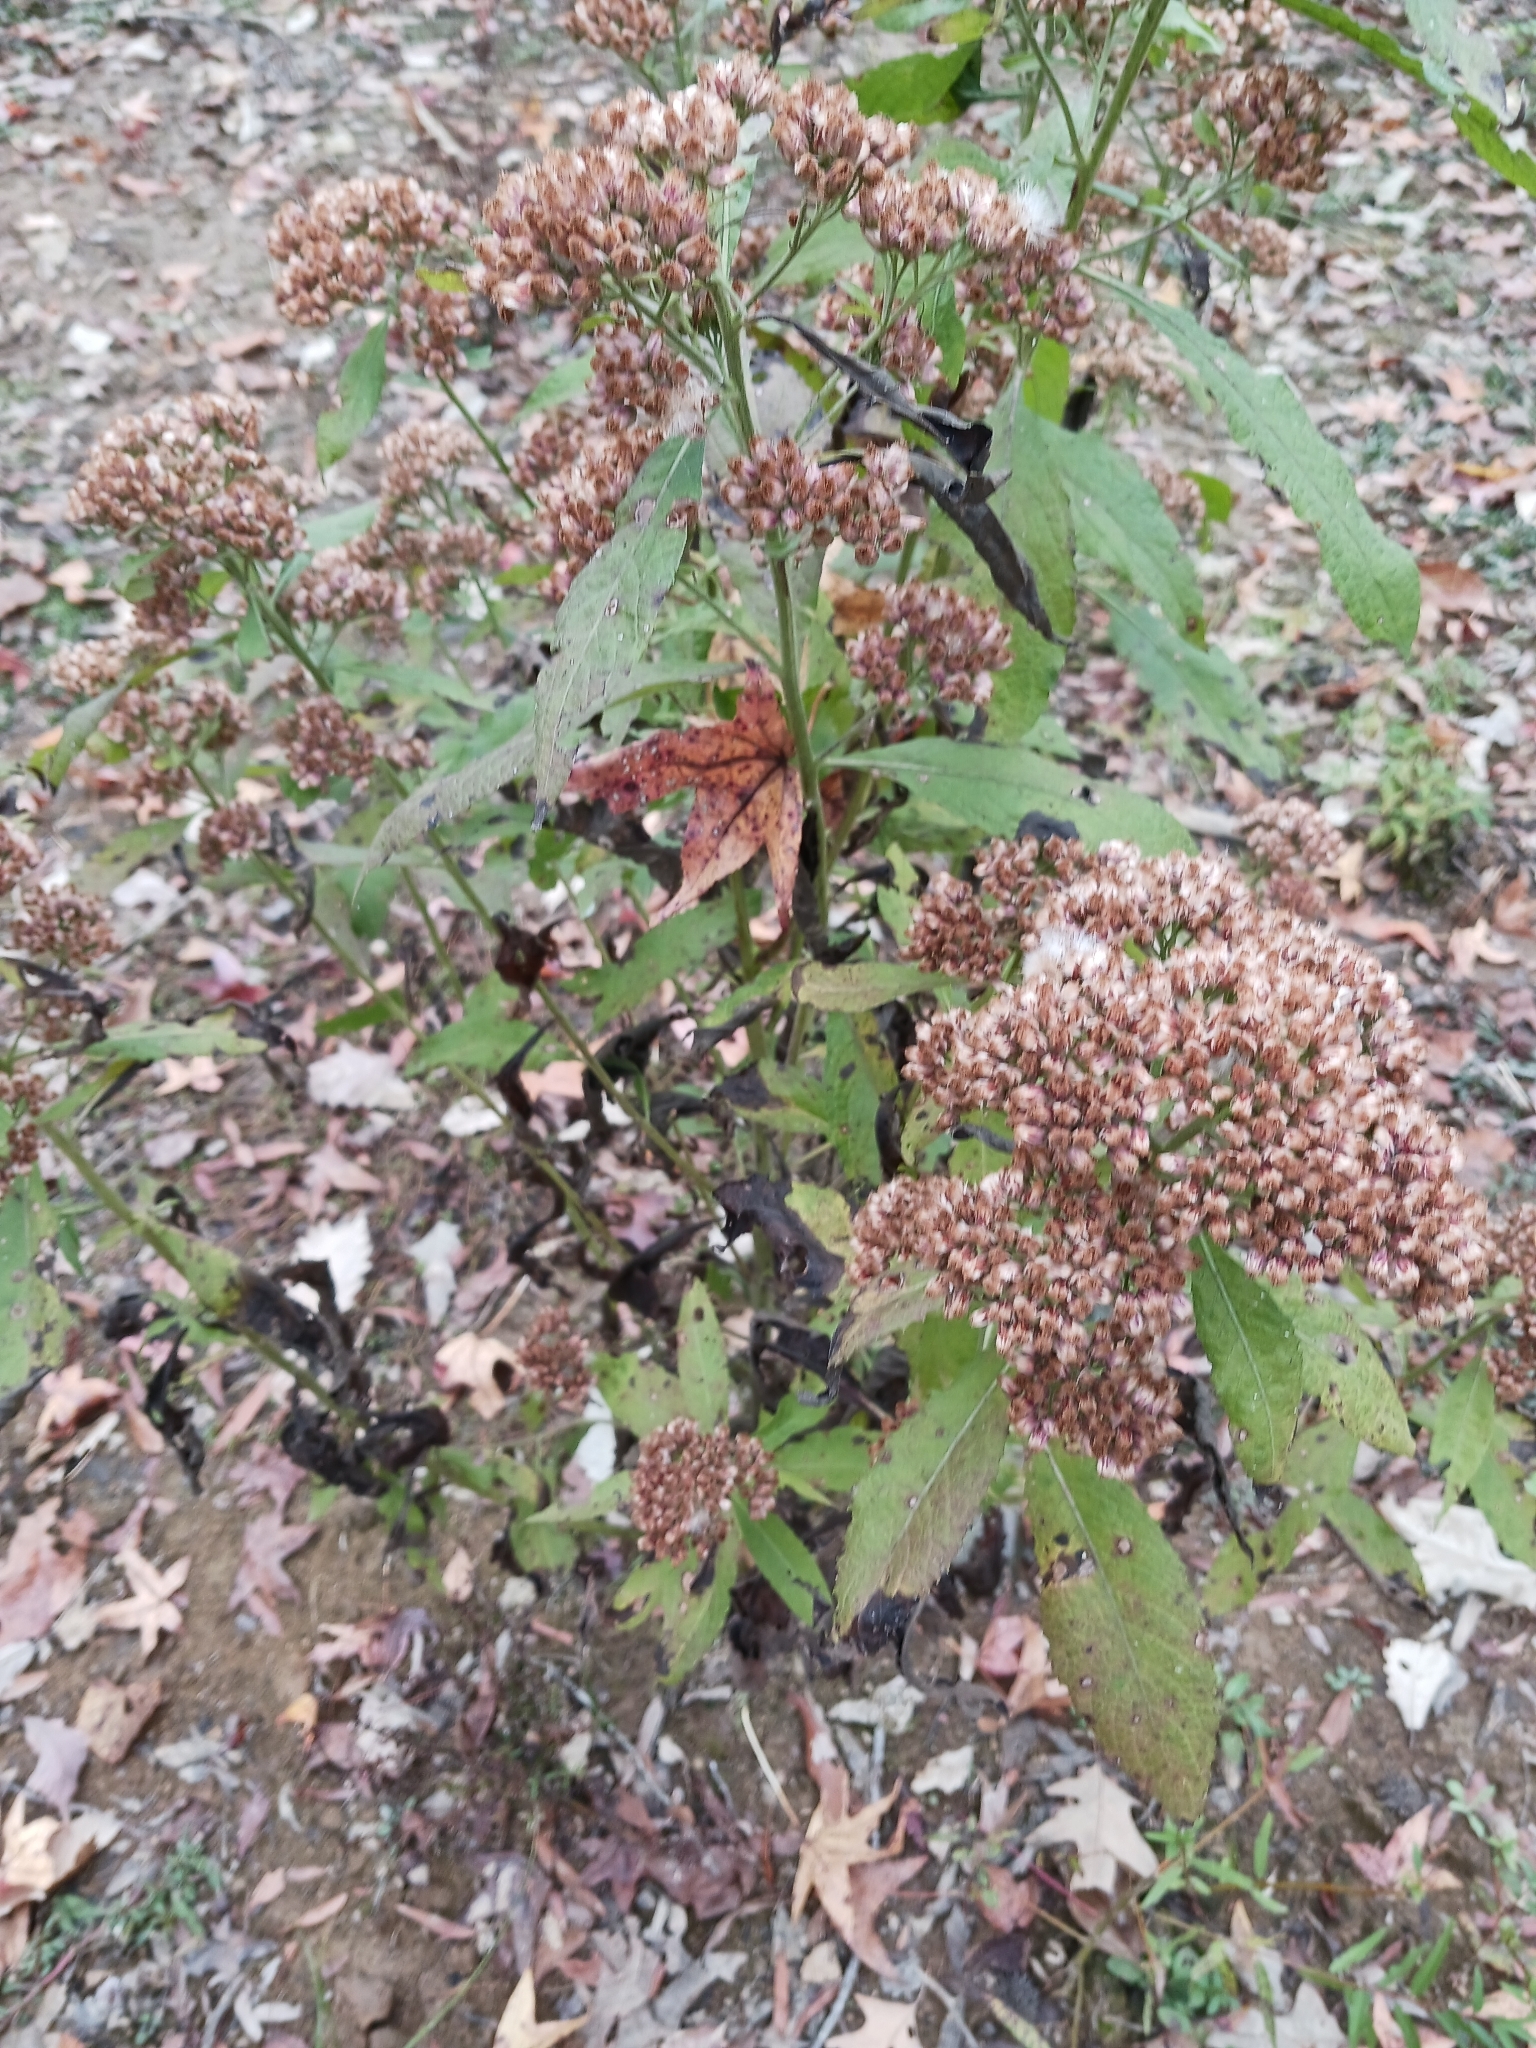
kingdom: Plantae
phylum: Tracheophyta
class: Magnoliopsida
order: Asterales
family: Asteraceae
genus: Pluchea
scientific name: Pluchea camphorata
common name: Camphor pluchea
